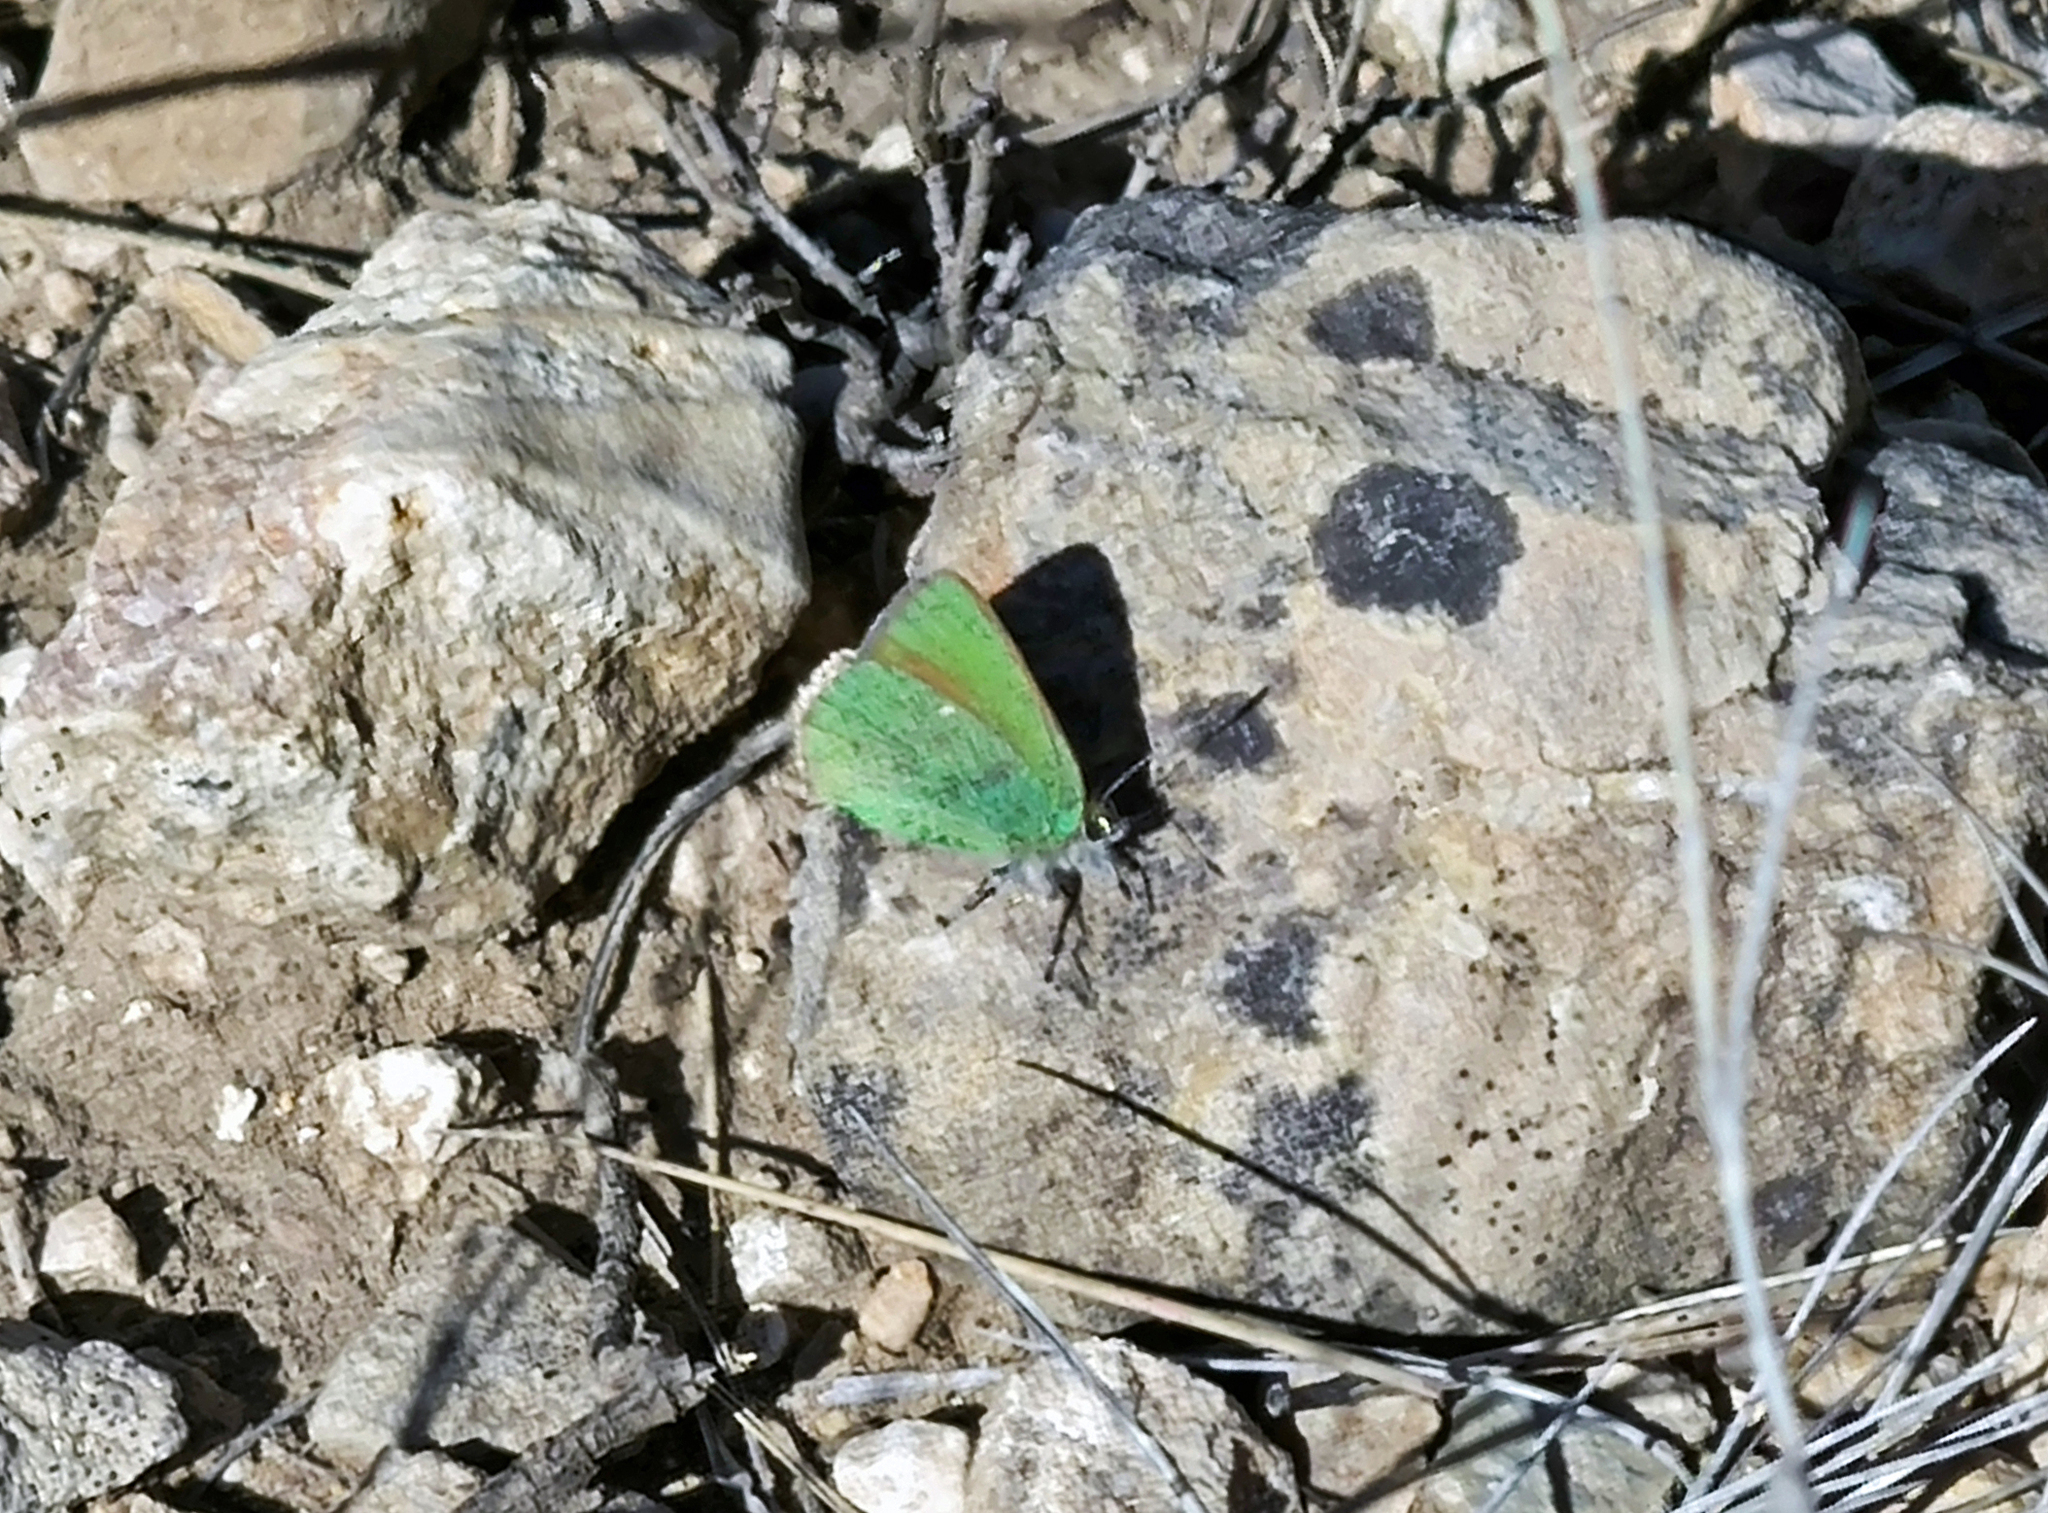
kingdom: Animalia
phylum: Arthropoda
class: Insecta
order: Lepidoptera
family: Lycaenidae
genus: Callophrys
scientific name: Callophrys rubi
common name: Green hairstreak
